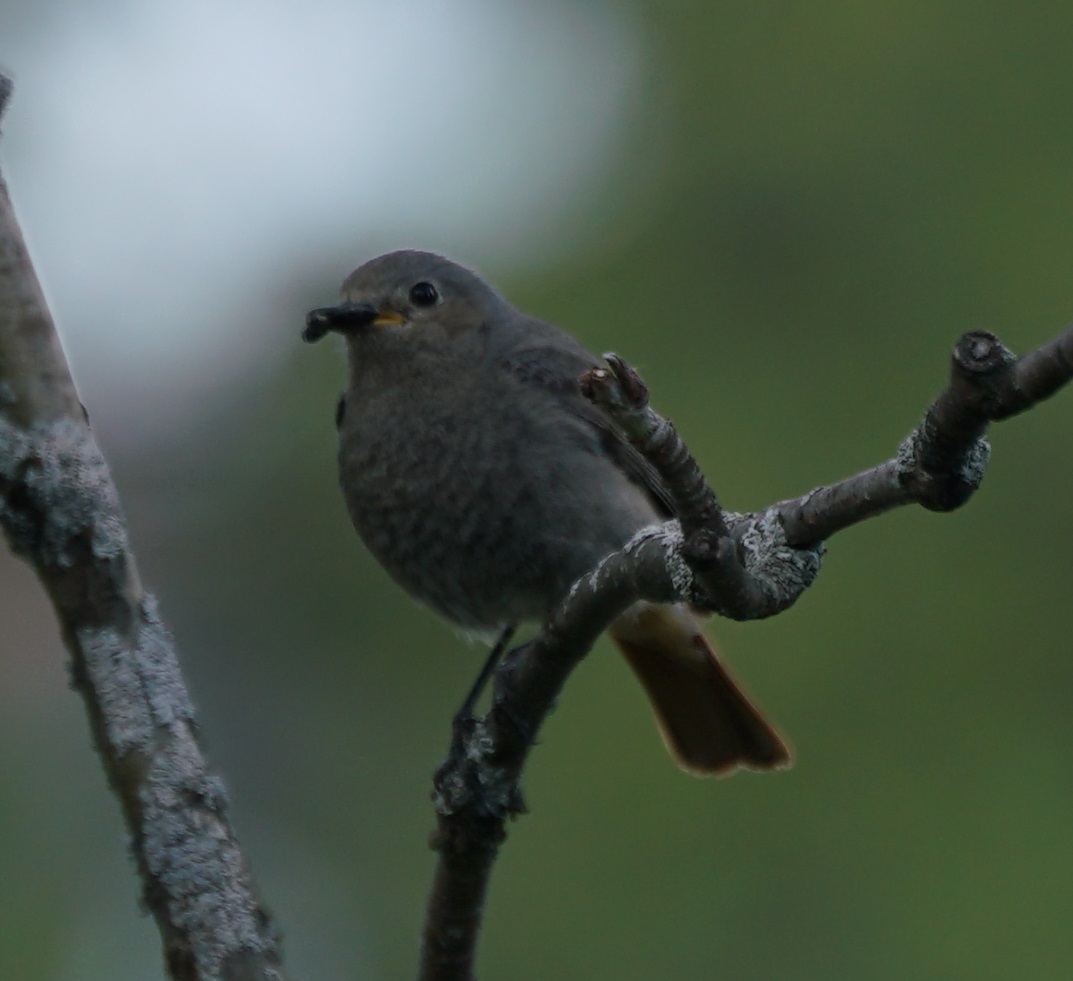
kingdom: Animalia
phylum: Chordata
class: Aves
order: Passeriformes
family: Muscicapidae
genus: Phoenicurus
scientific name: Phoenicurus ochruros
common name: Black redstart
